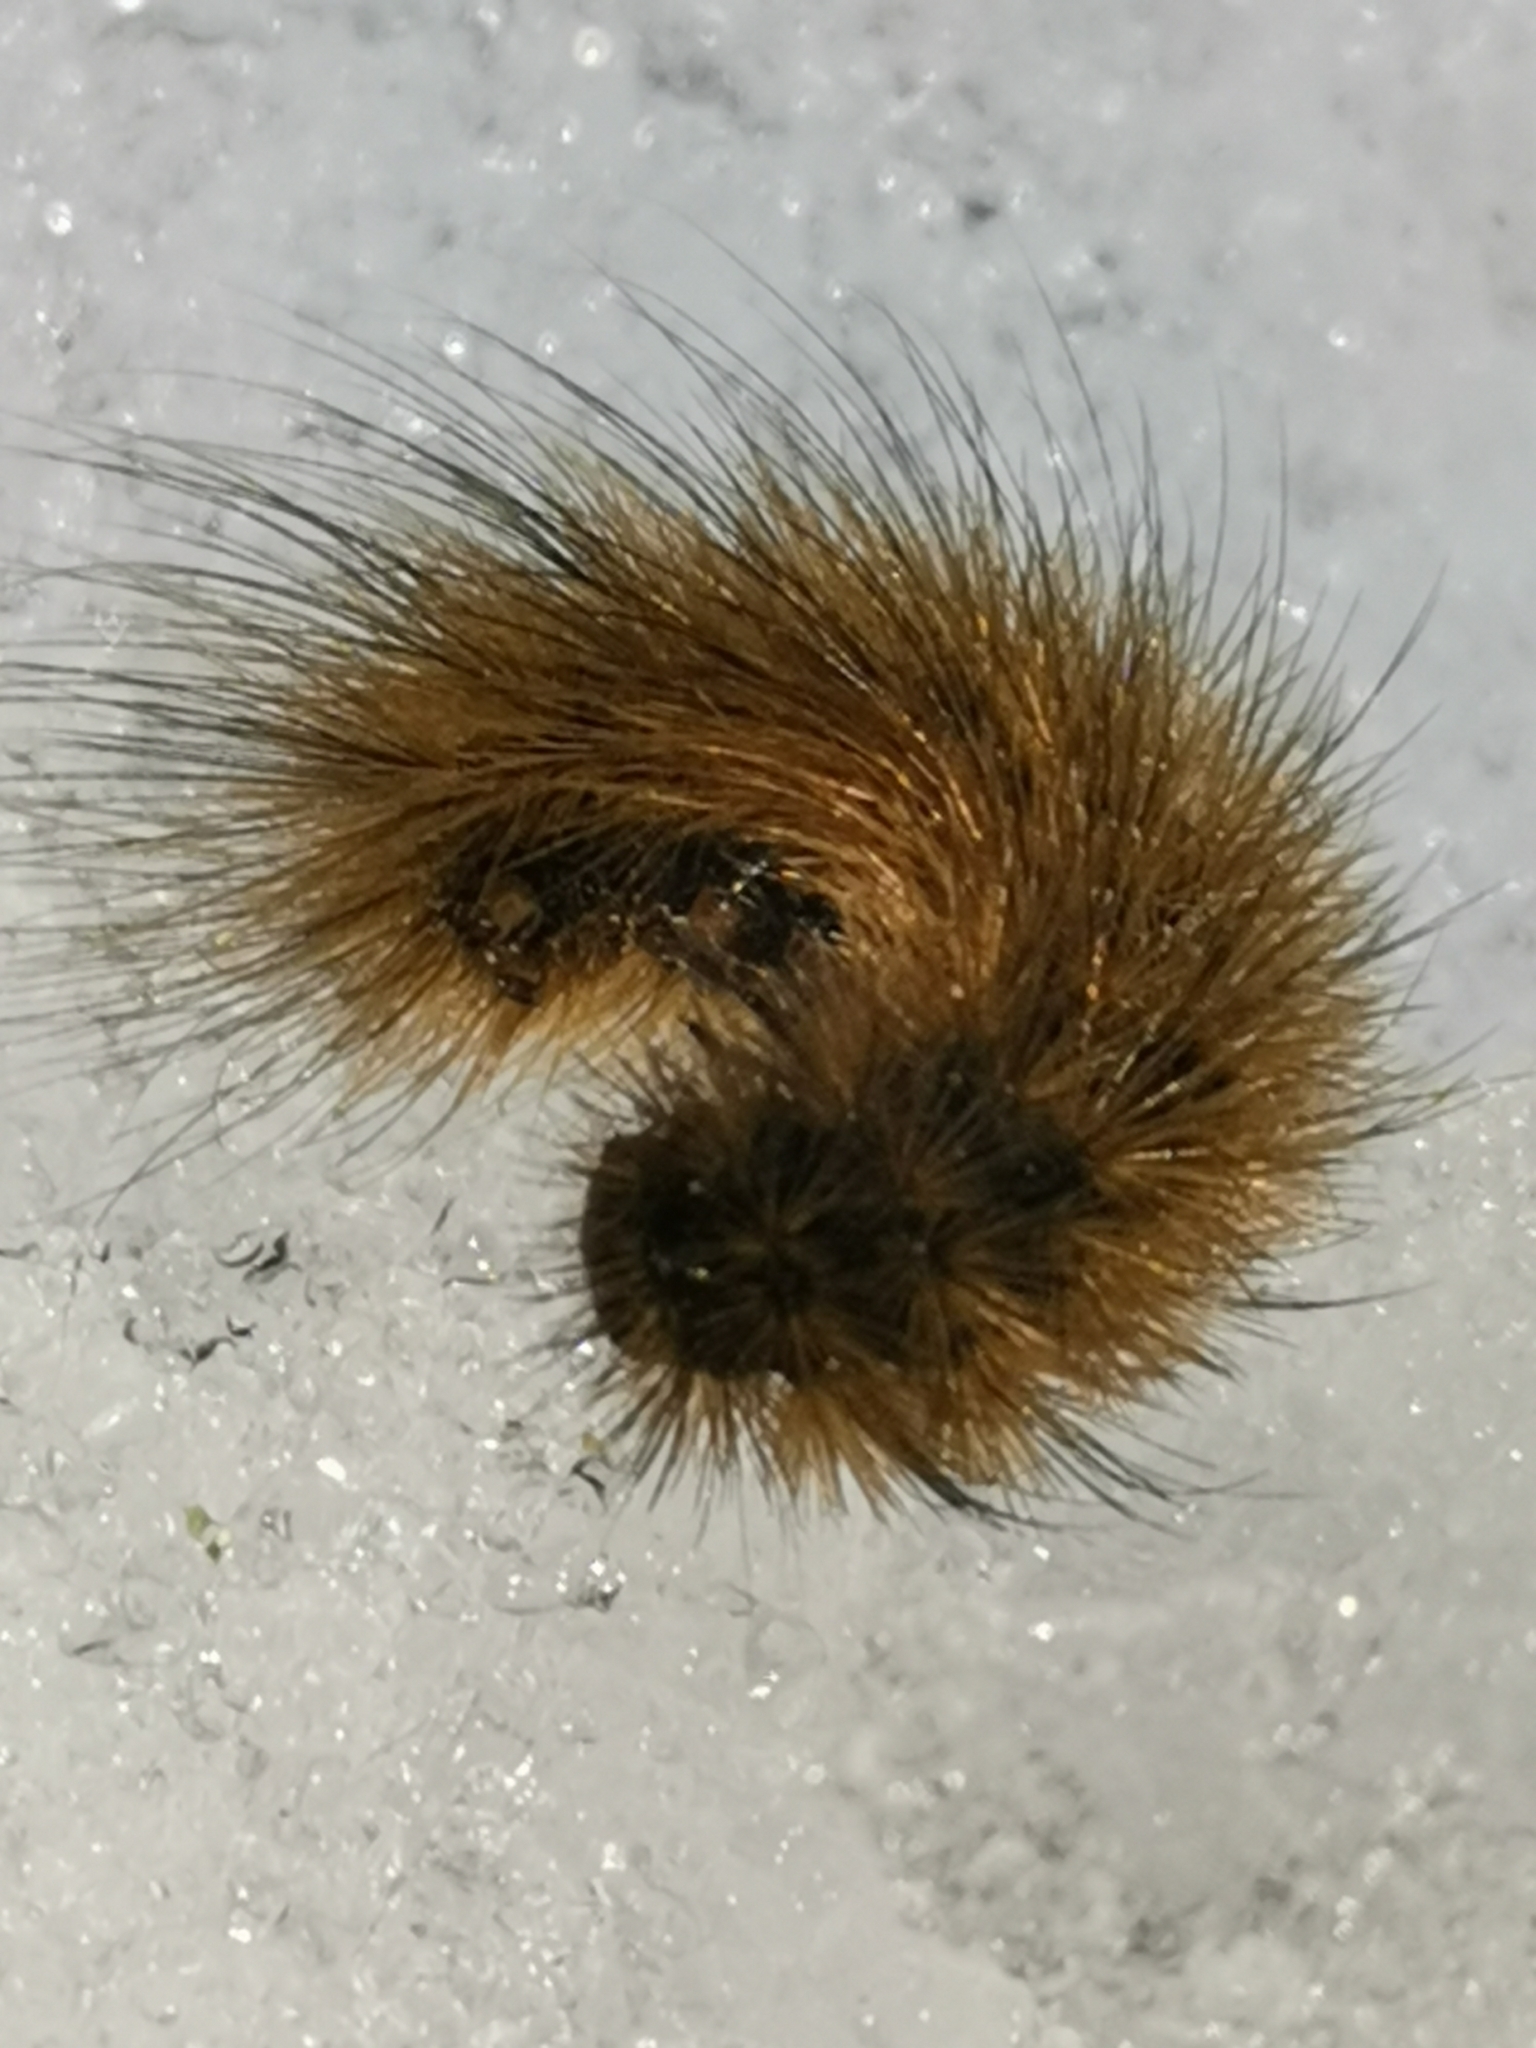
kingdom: Animalia
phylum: Arthropoda
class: Insecta
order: Lepidoptera
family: Erebidae
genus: Phragmatobia
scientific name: Phragmatobia fuliginosa
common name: Ruby tiger
